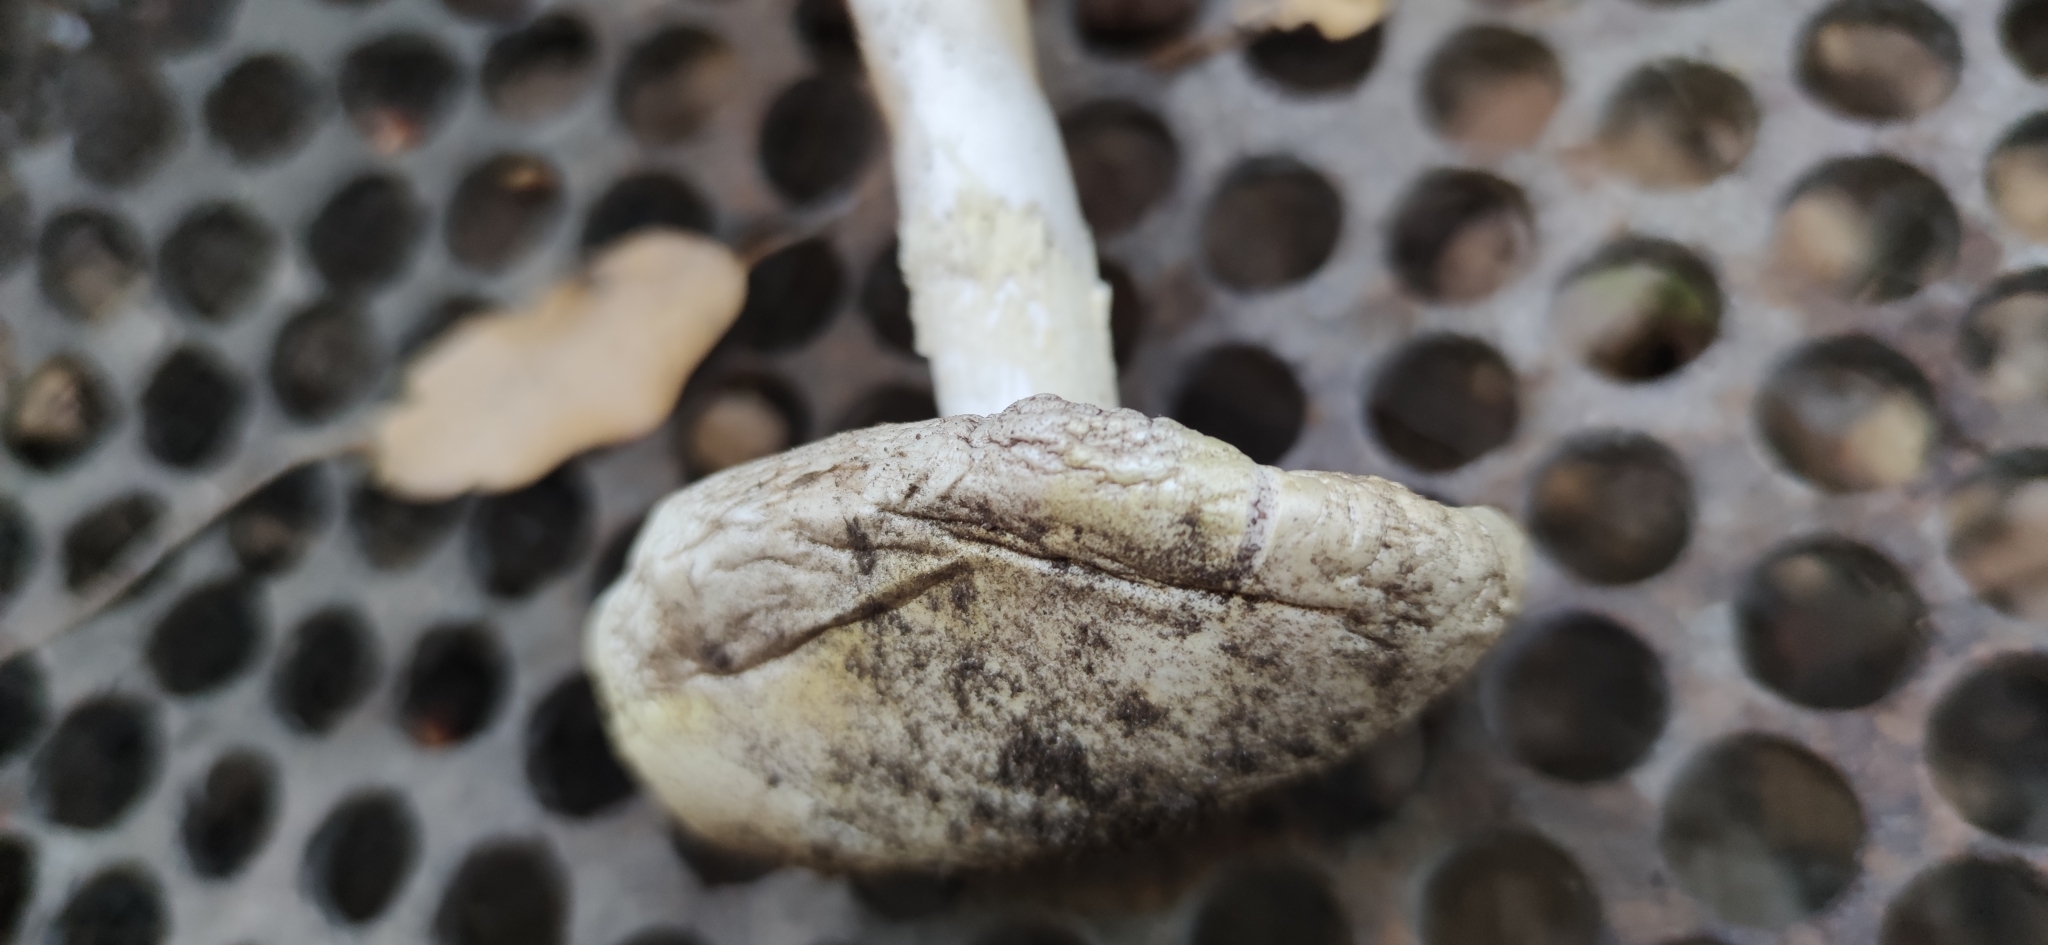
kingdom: Fungi
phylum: Basidiomycota
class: Agaricomycetes
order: Agaricales
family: Amanitaceae
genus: Amanita
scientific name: Amanita ocreata
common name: Western destroying angel
